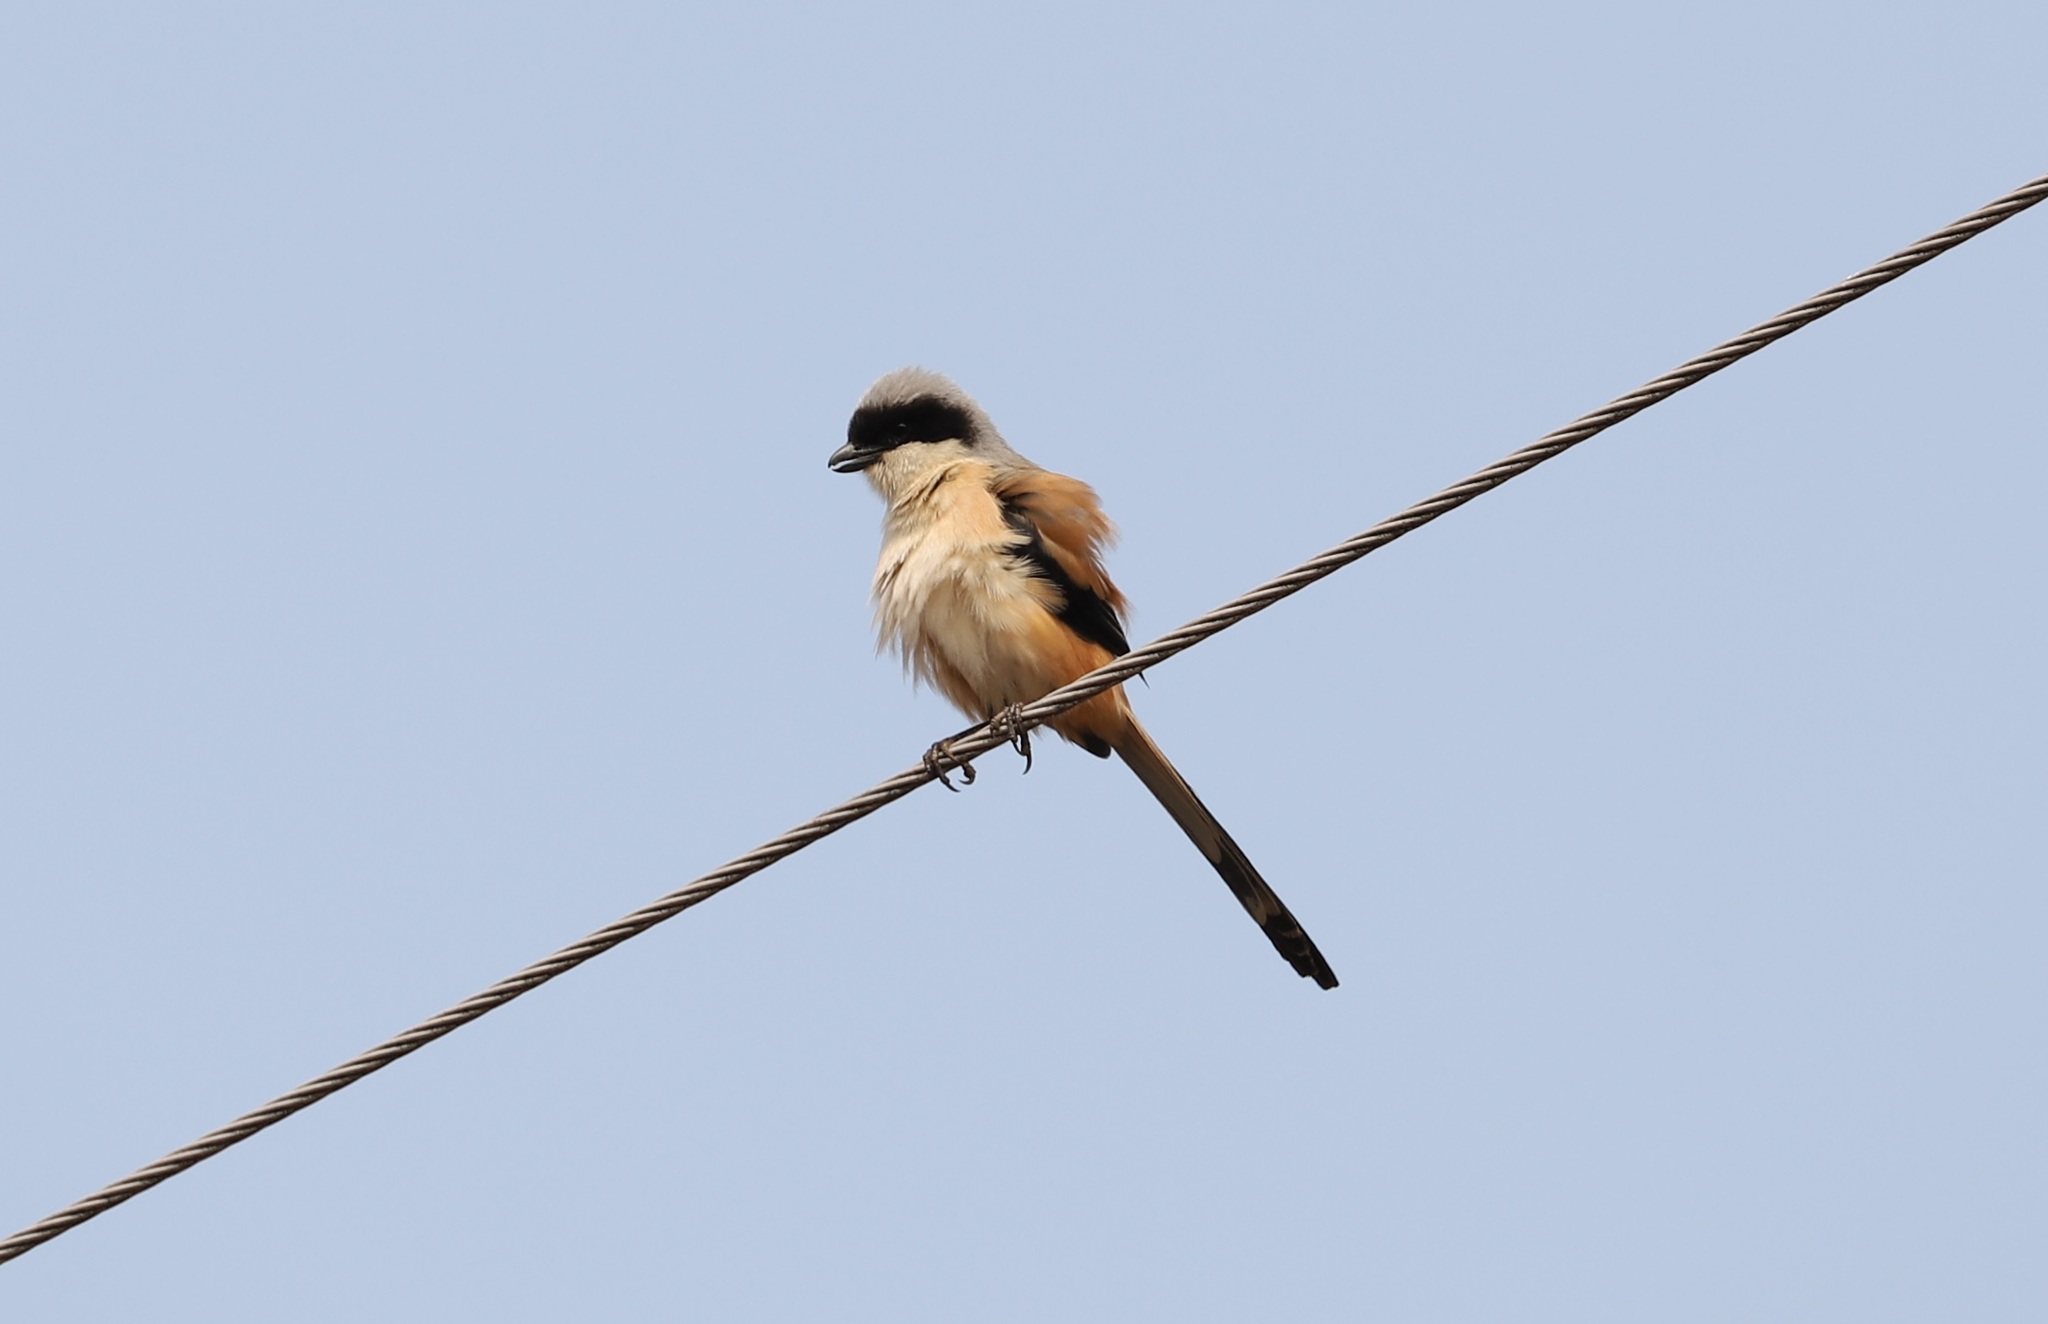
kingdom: Animalia
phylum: Chordata
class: Aves
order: Passeriformes
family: Laniidae
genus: Lanius
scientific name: Lanius schach
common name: Long-tailed shrike
